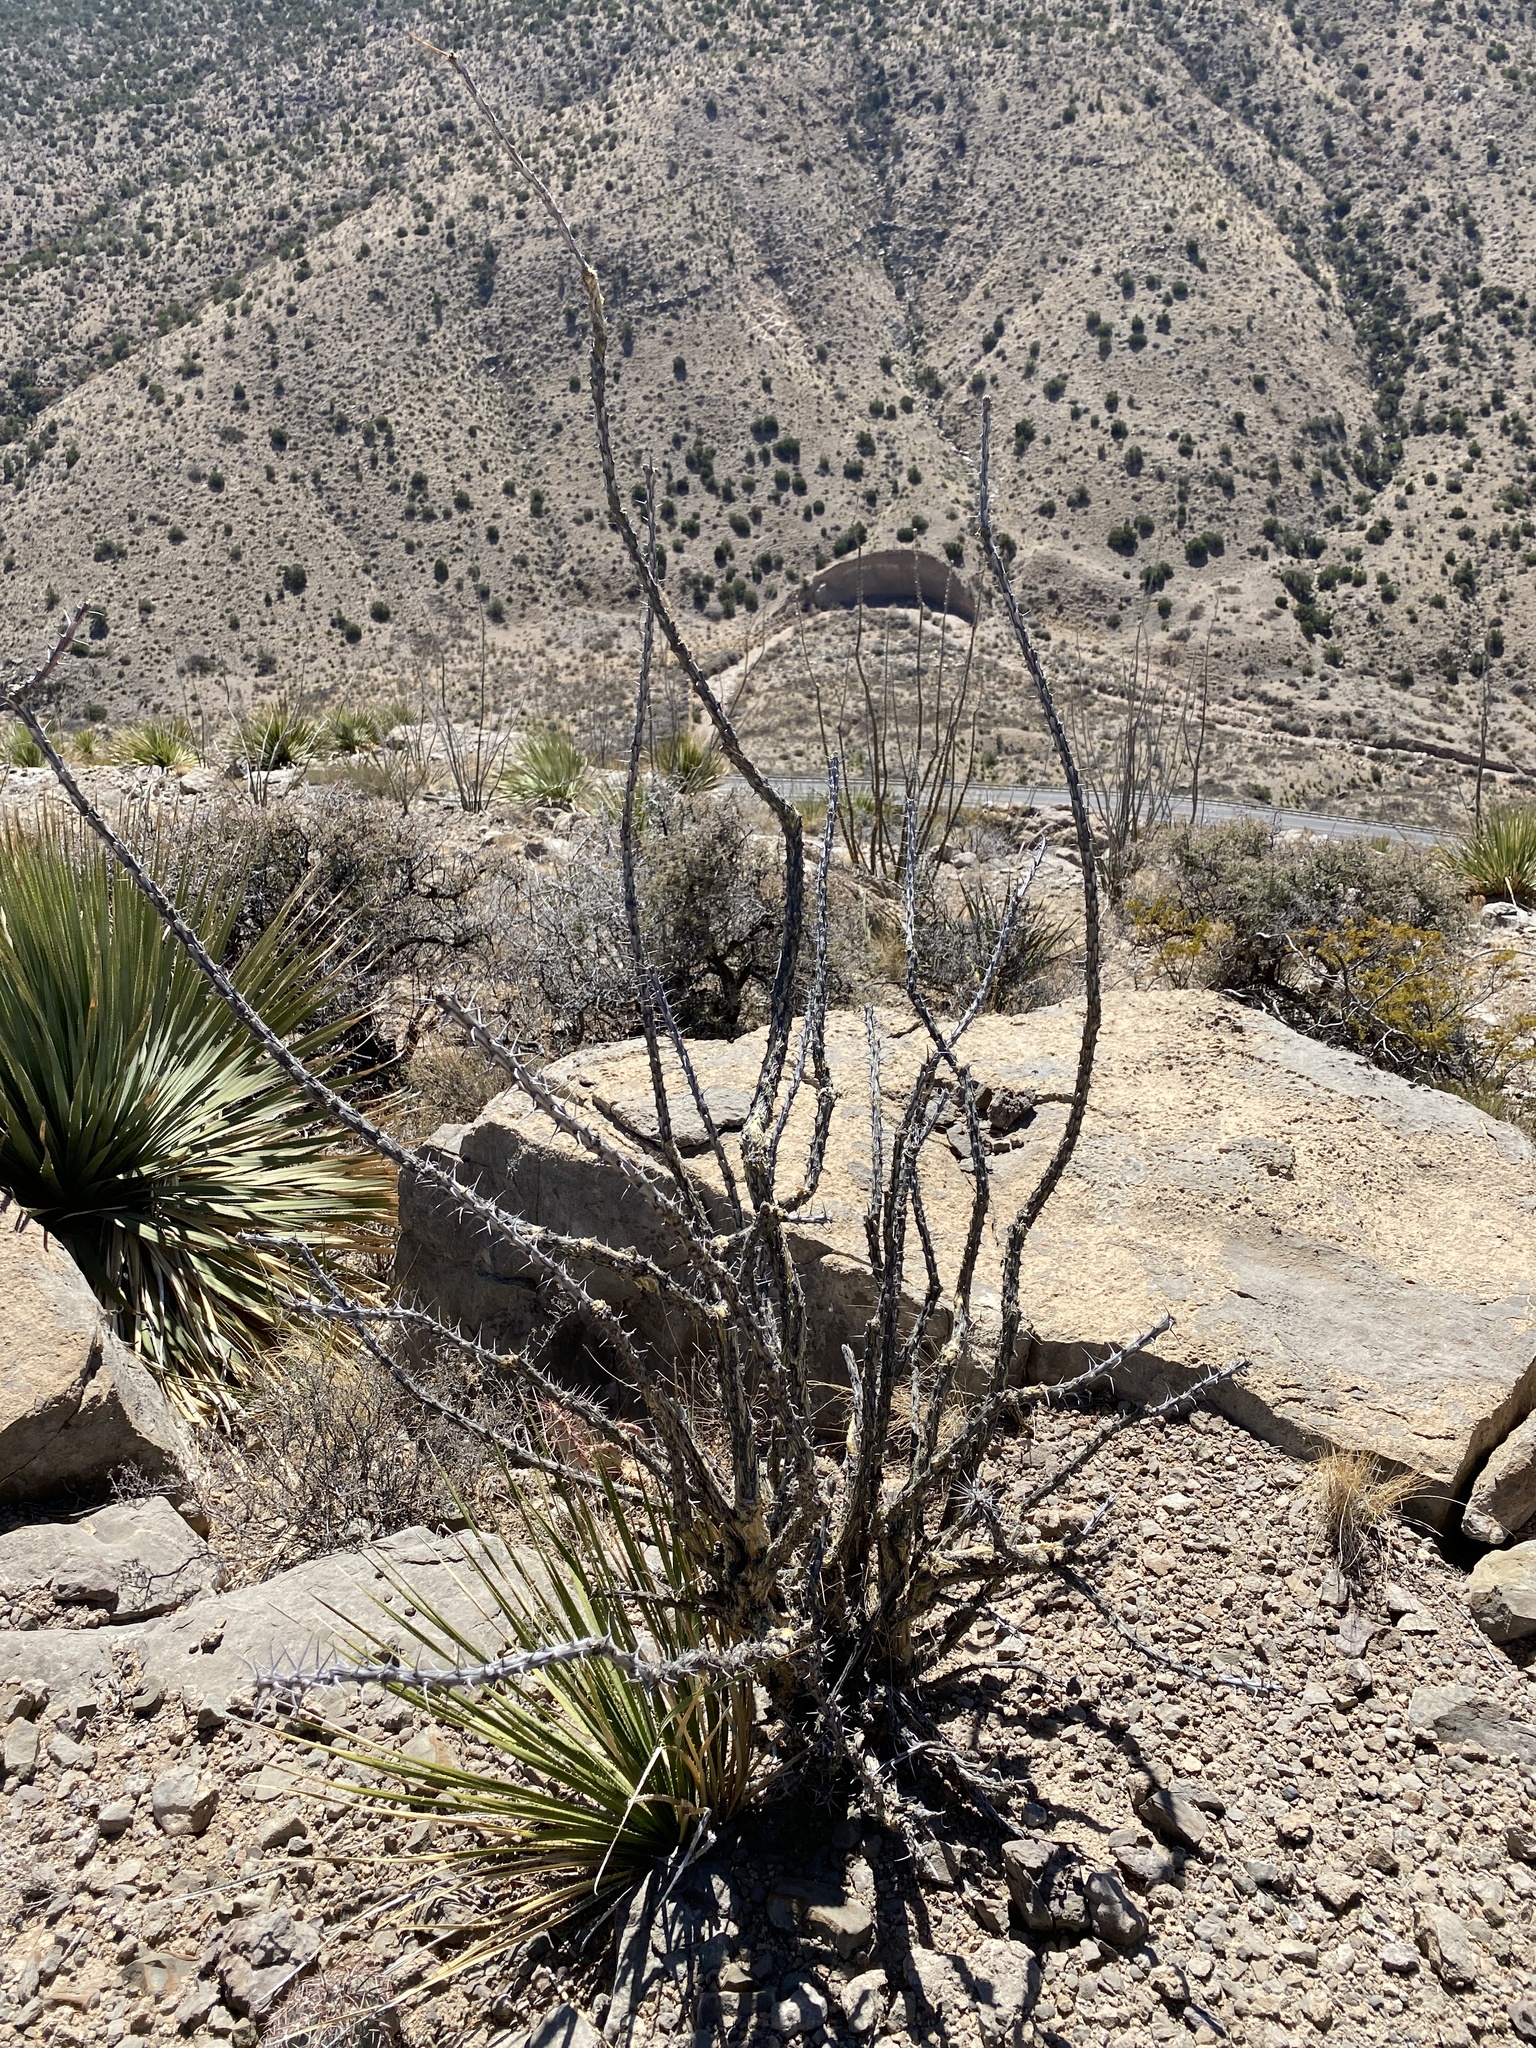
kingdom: Plantae
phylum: Tracheophyta
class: Magnoliopsida
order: Ericales
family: Fouquieriaceae
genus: Fouquieria
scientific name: Fouquieria splendens
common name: Vine-cactus
